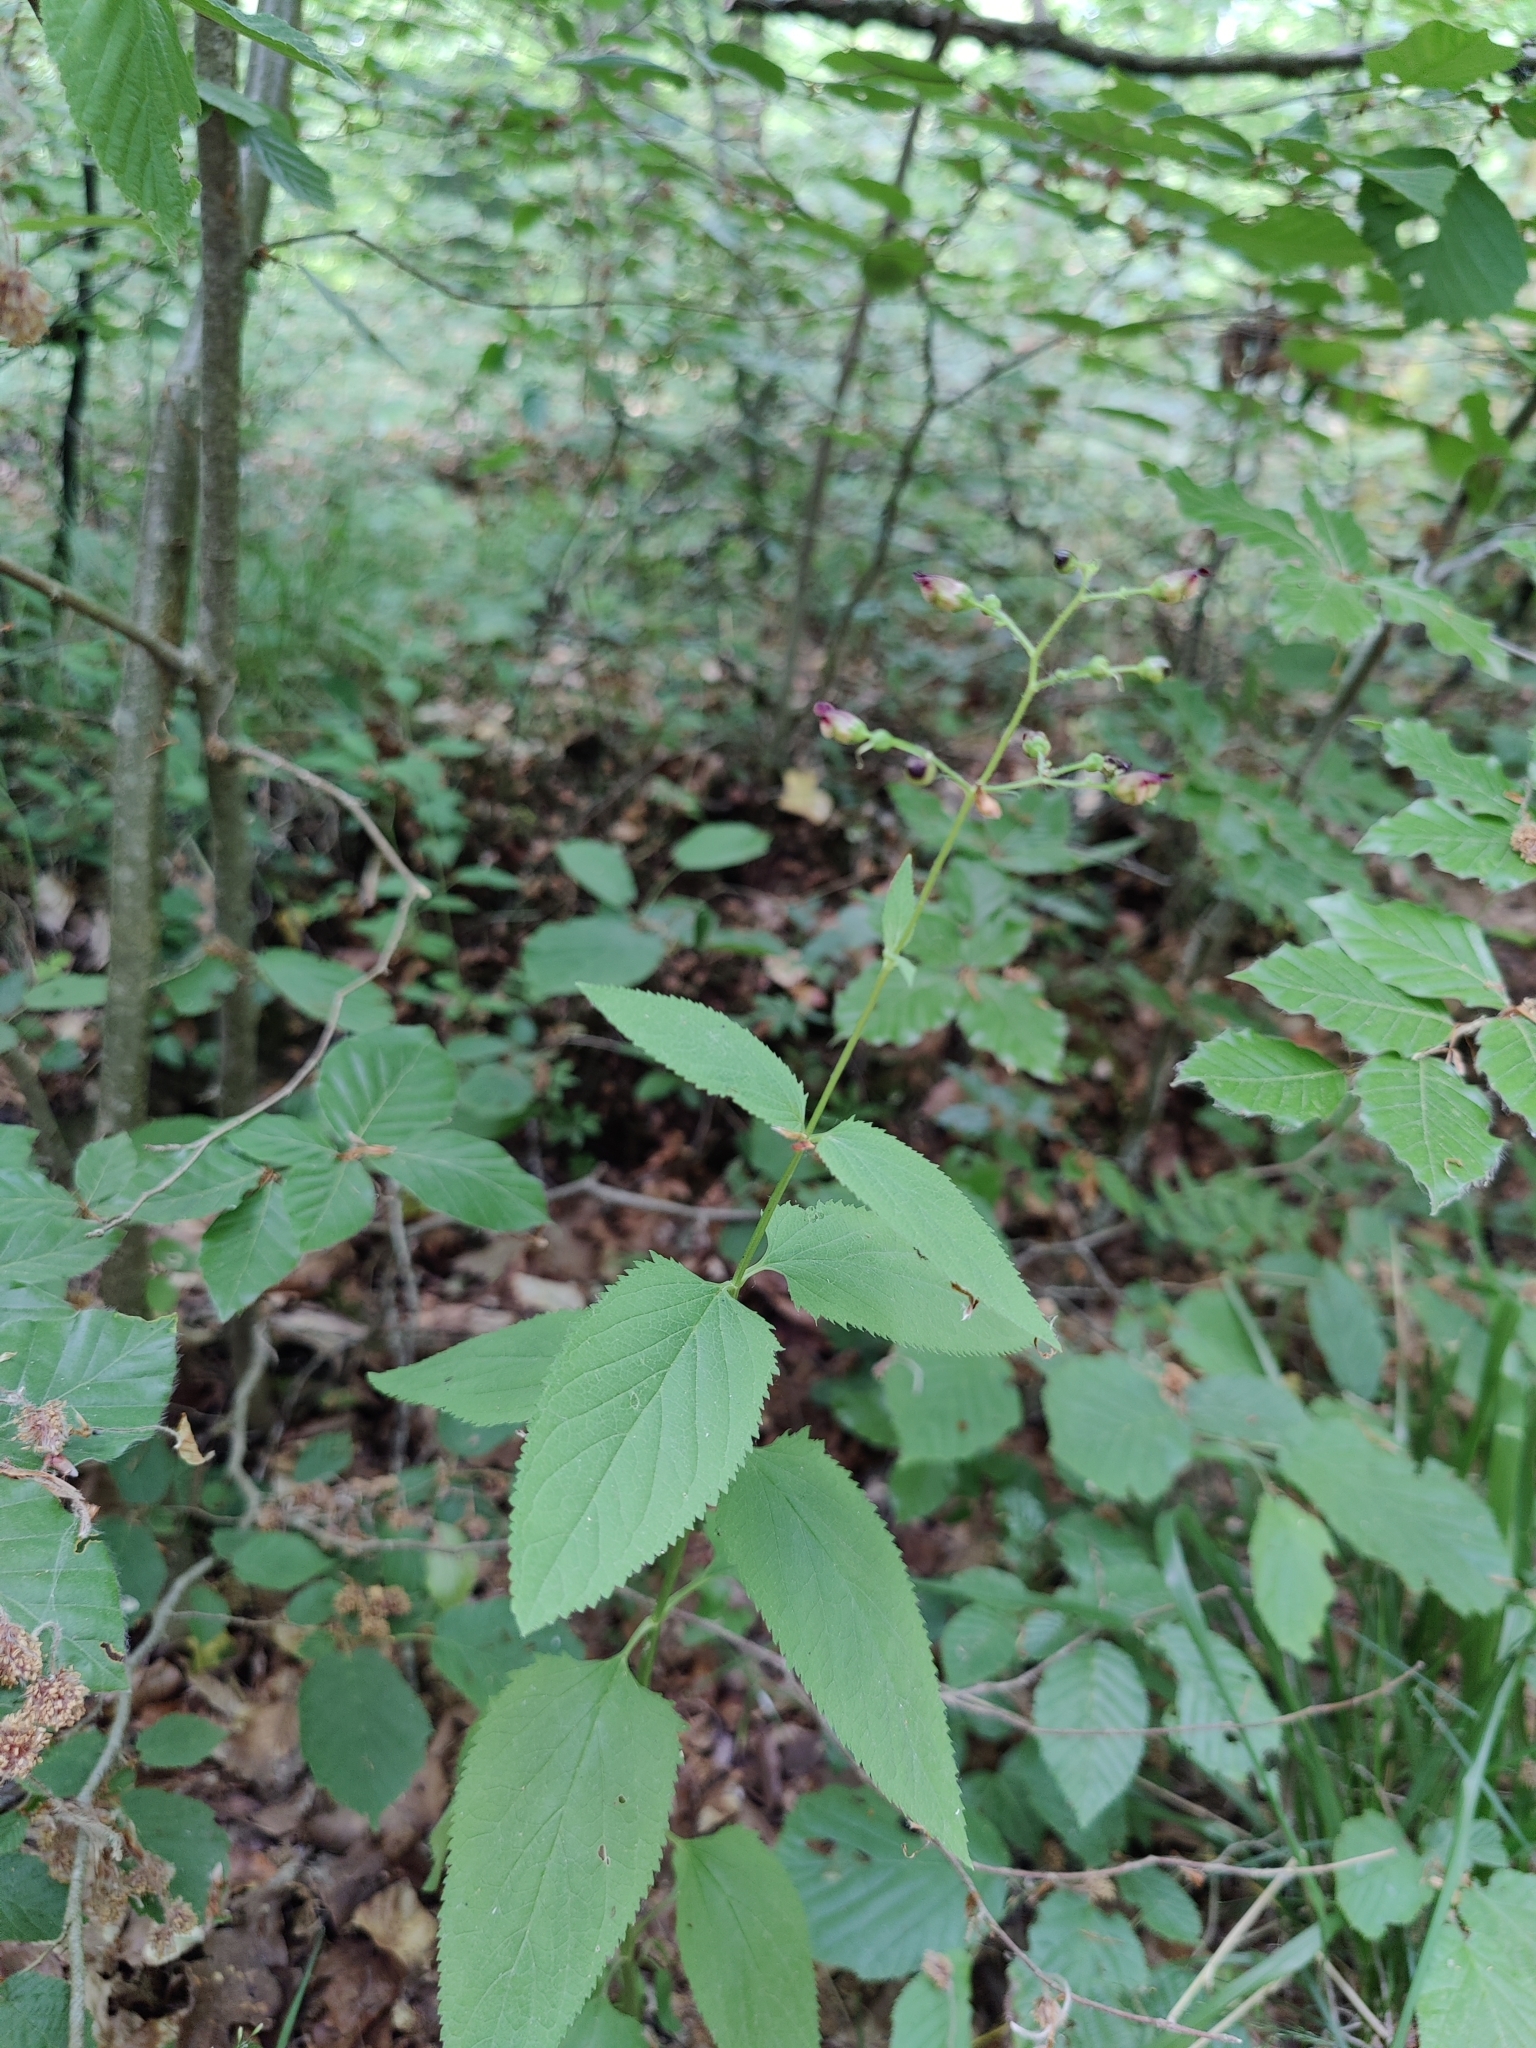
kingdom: Plantae
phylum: Tracheophyta
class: Magnoliopsida
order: Lamiales
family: Scrophulariaceae
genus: Scrophularia
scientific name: Scrophularia nodosa
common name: Common figwort
